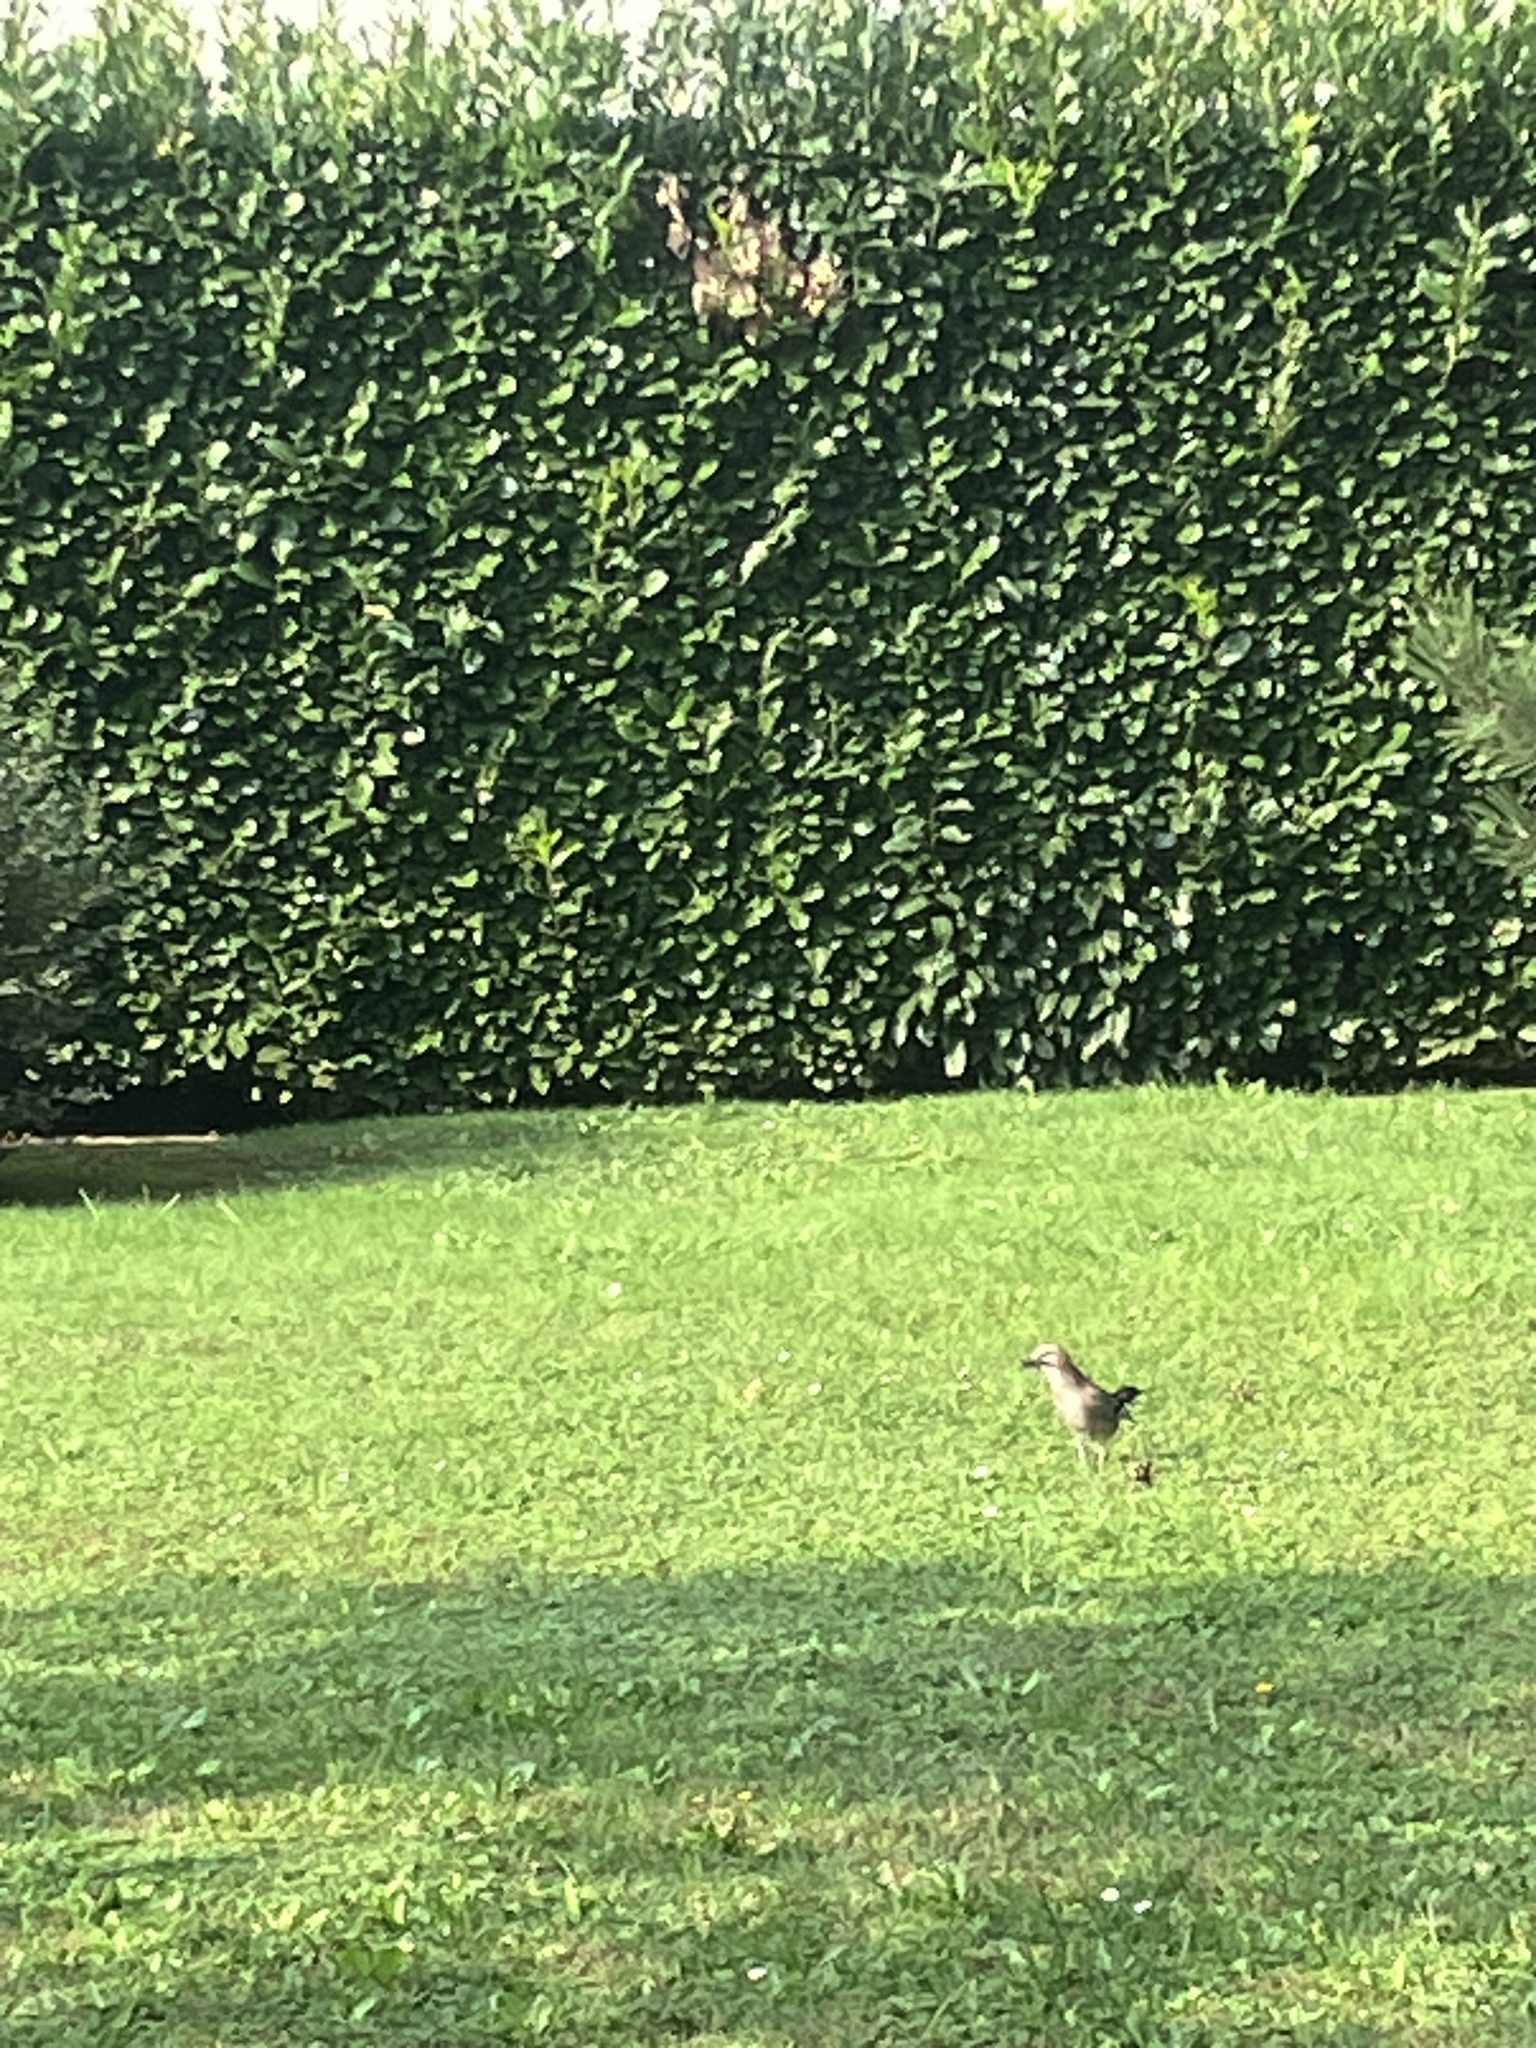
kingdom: Animalia
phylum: Chordata
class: Aves
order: Passeriformes
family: Corvidae
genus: Garrulus
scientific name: Garrulus glandarius
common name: Eurasian jay
